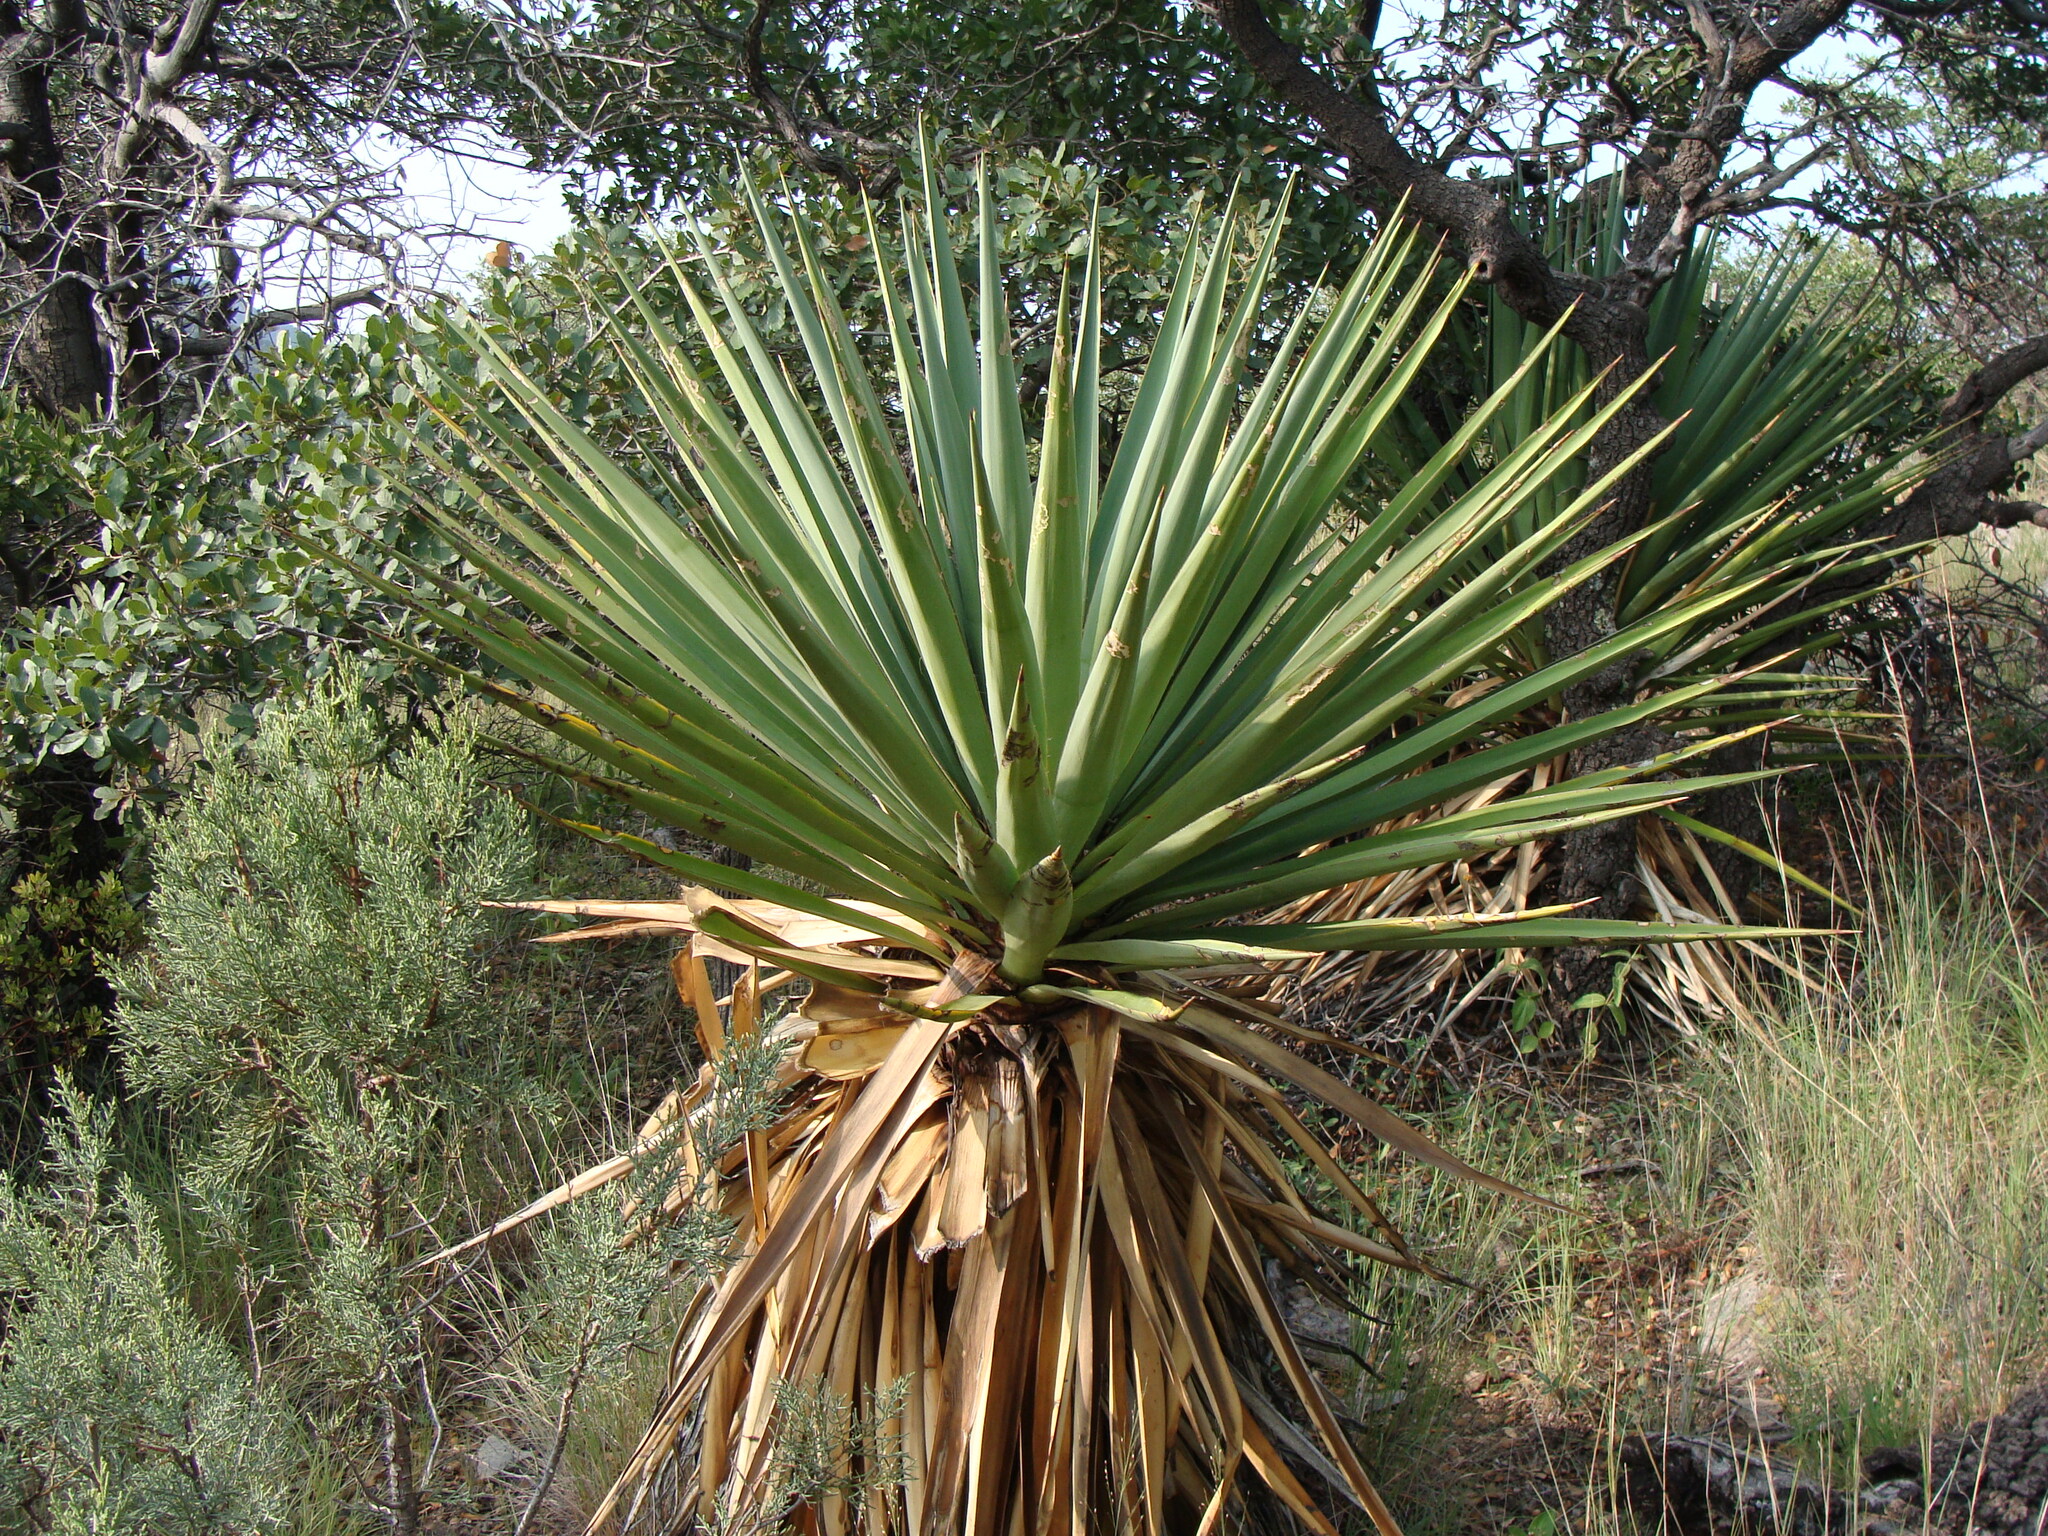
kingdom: Plantae
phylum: Tracheophyta
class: Liliopsida
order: Asparagales
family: Asparagaceae
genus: Yucca
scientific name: Yucca schottii
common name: Hoary yucca
